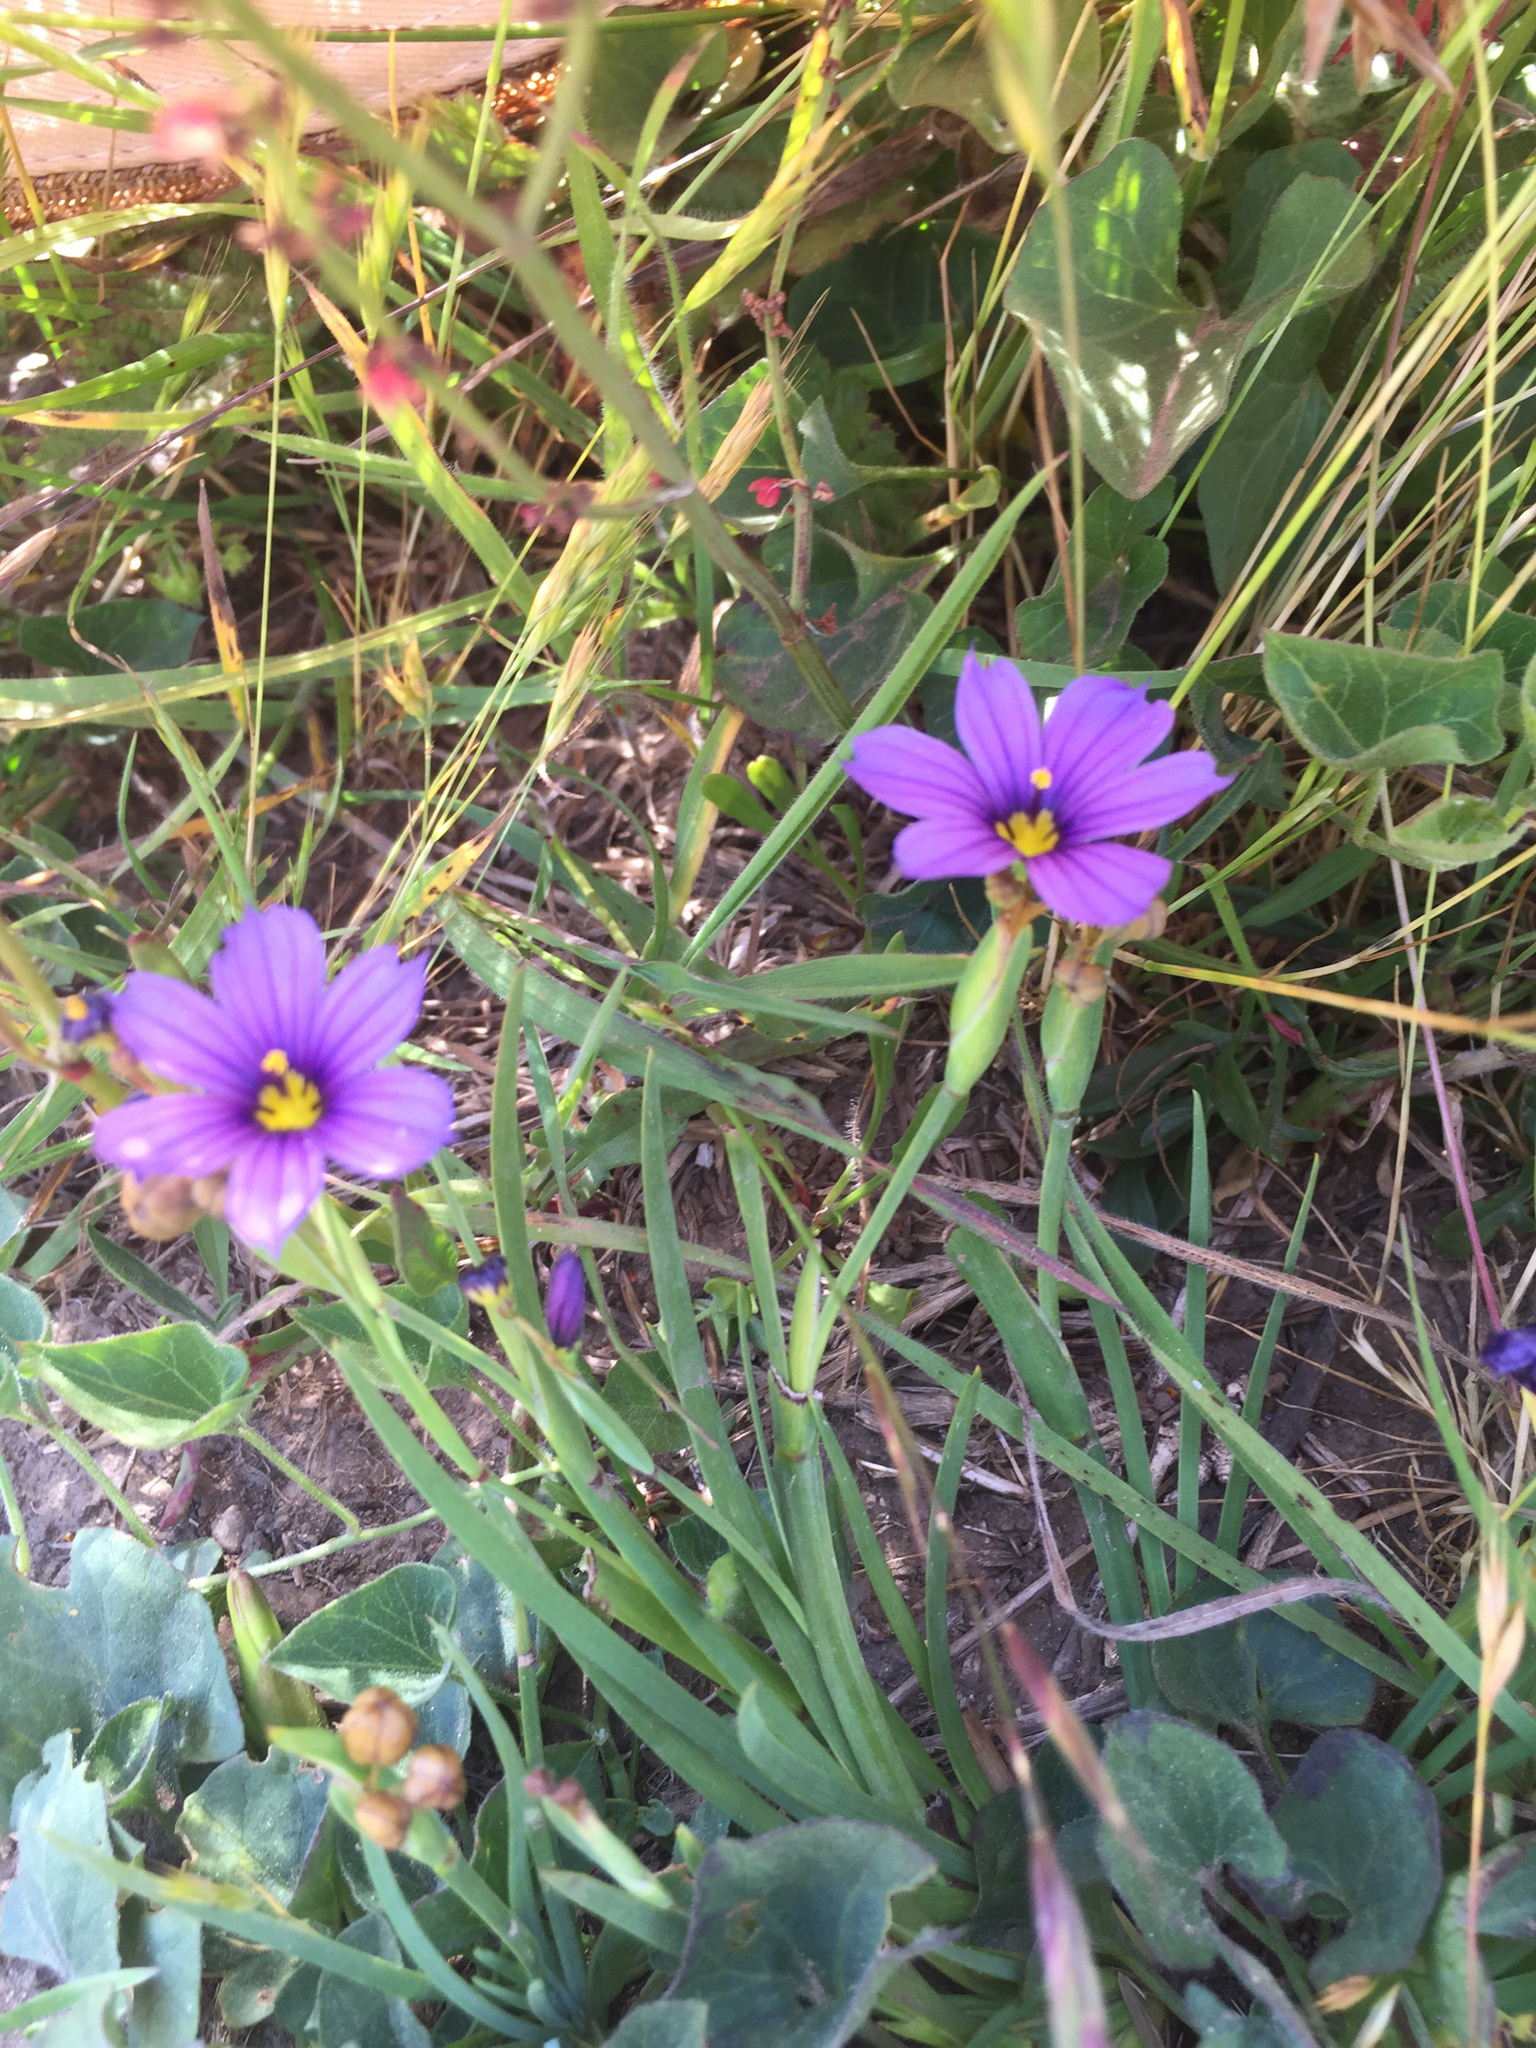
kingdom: Plantae
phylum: Tracheophyta
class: Liliopsida
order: Asparagales
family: Iridaceae
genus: Sisyrinchium
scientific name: Sisyrinchium bellum
